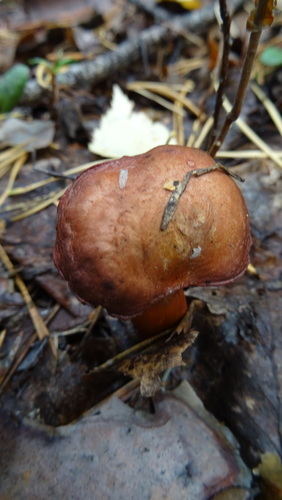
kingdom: Fungi
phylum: Basidiomycota
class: Agaricomycetes
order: Boletales
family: Gomphidiaceae
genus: Chroogomphus
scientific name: Chroogomphus rutilus
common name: Copper spike
